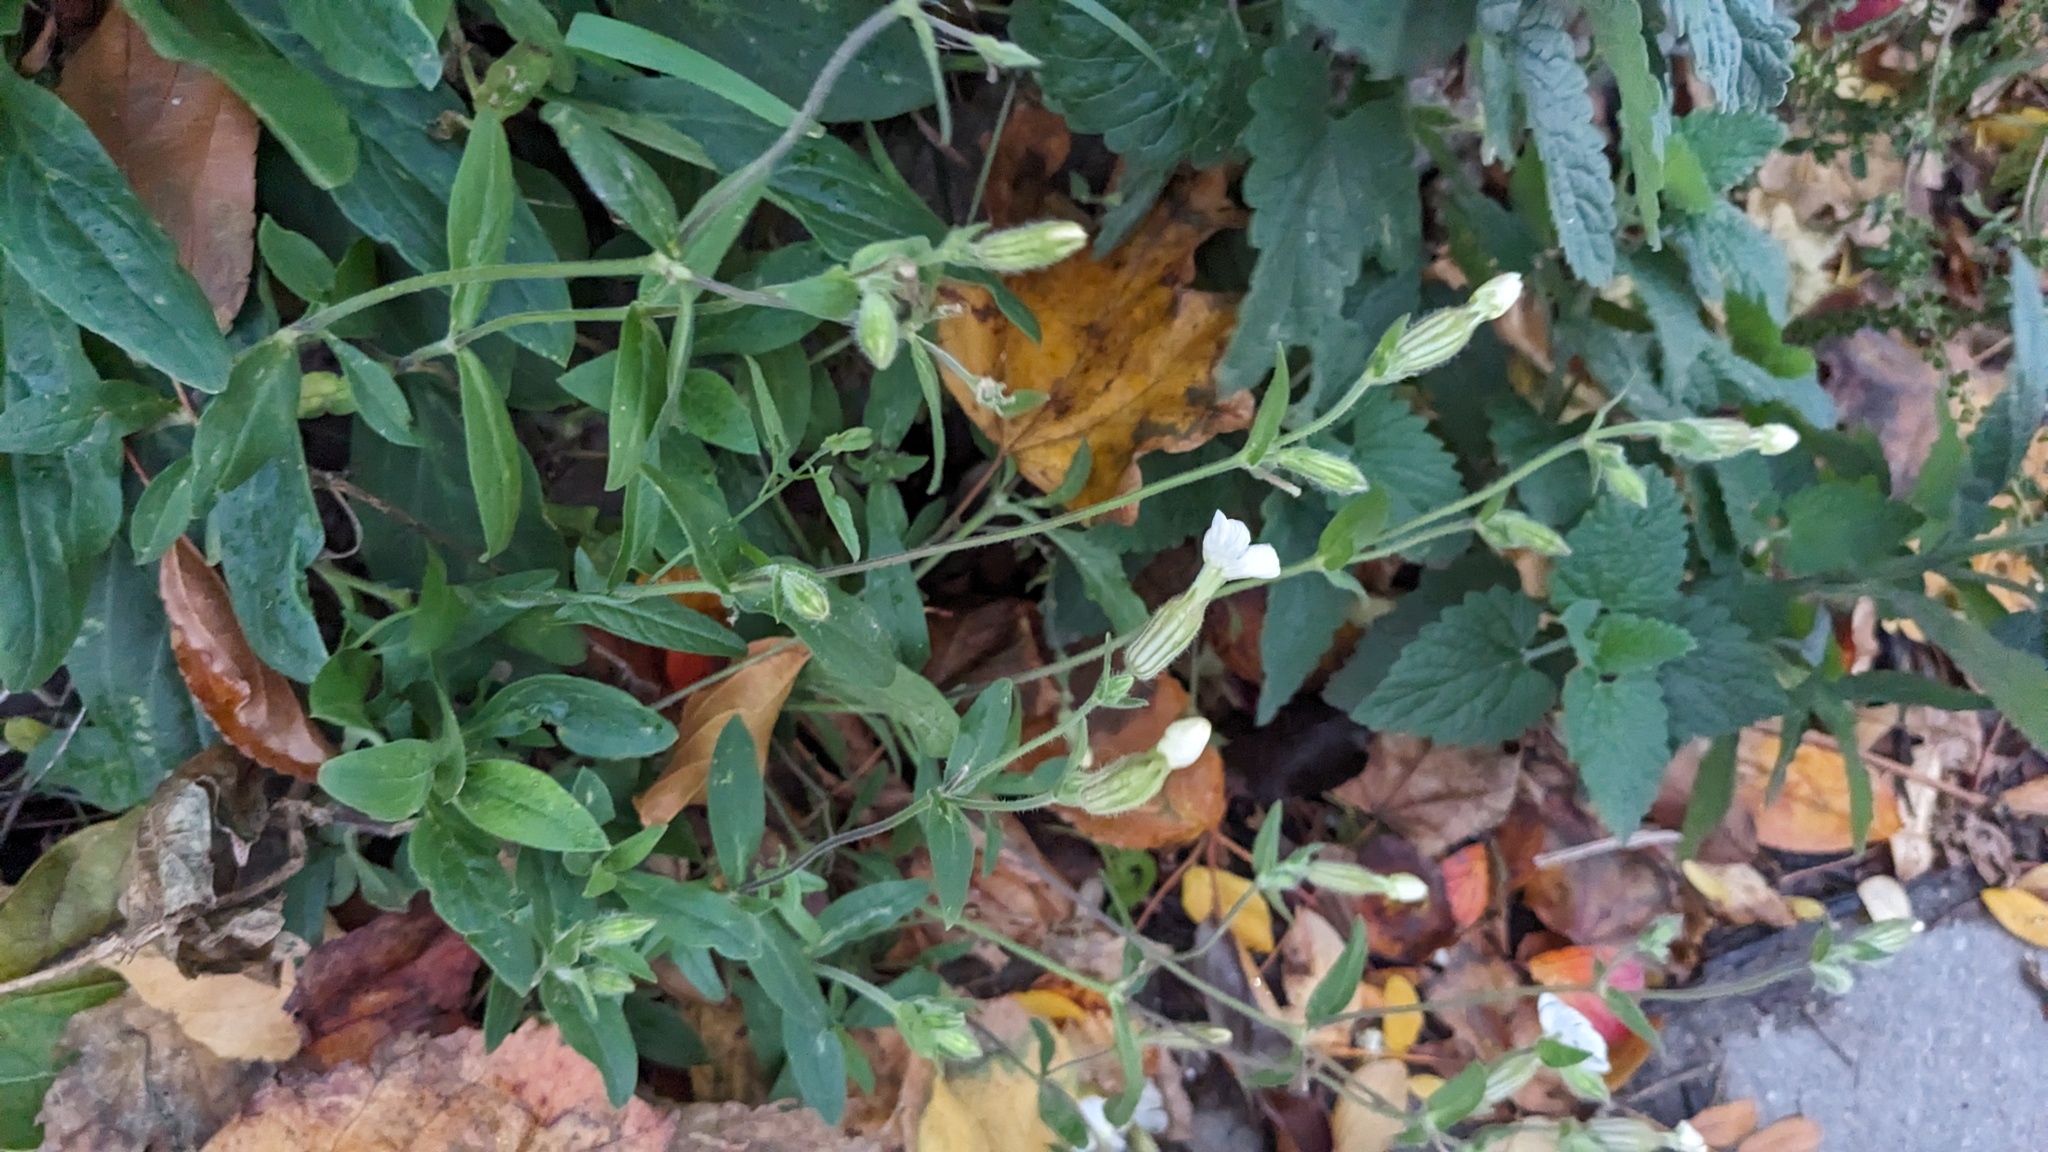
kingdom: Plantae
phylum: Tracheophyta
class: Magnoliopsida
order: Caryophyllales
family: Caryophyllaceae
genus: Silene
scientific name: Silene latifolia
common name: White campion
